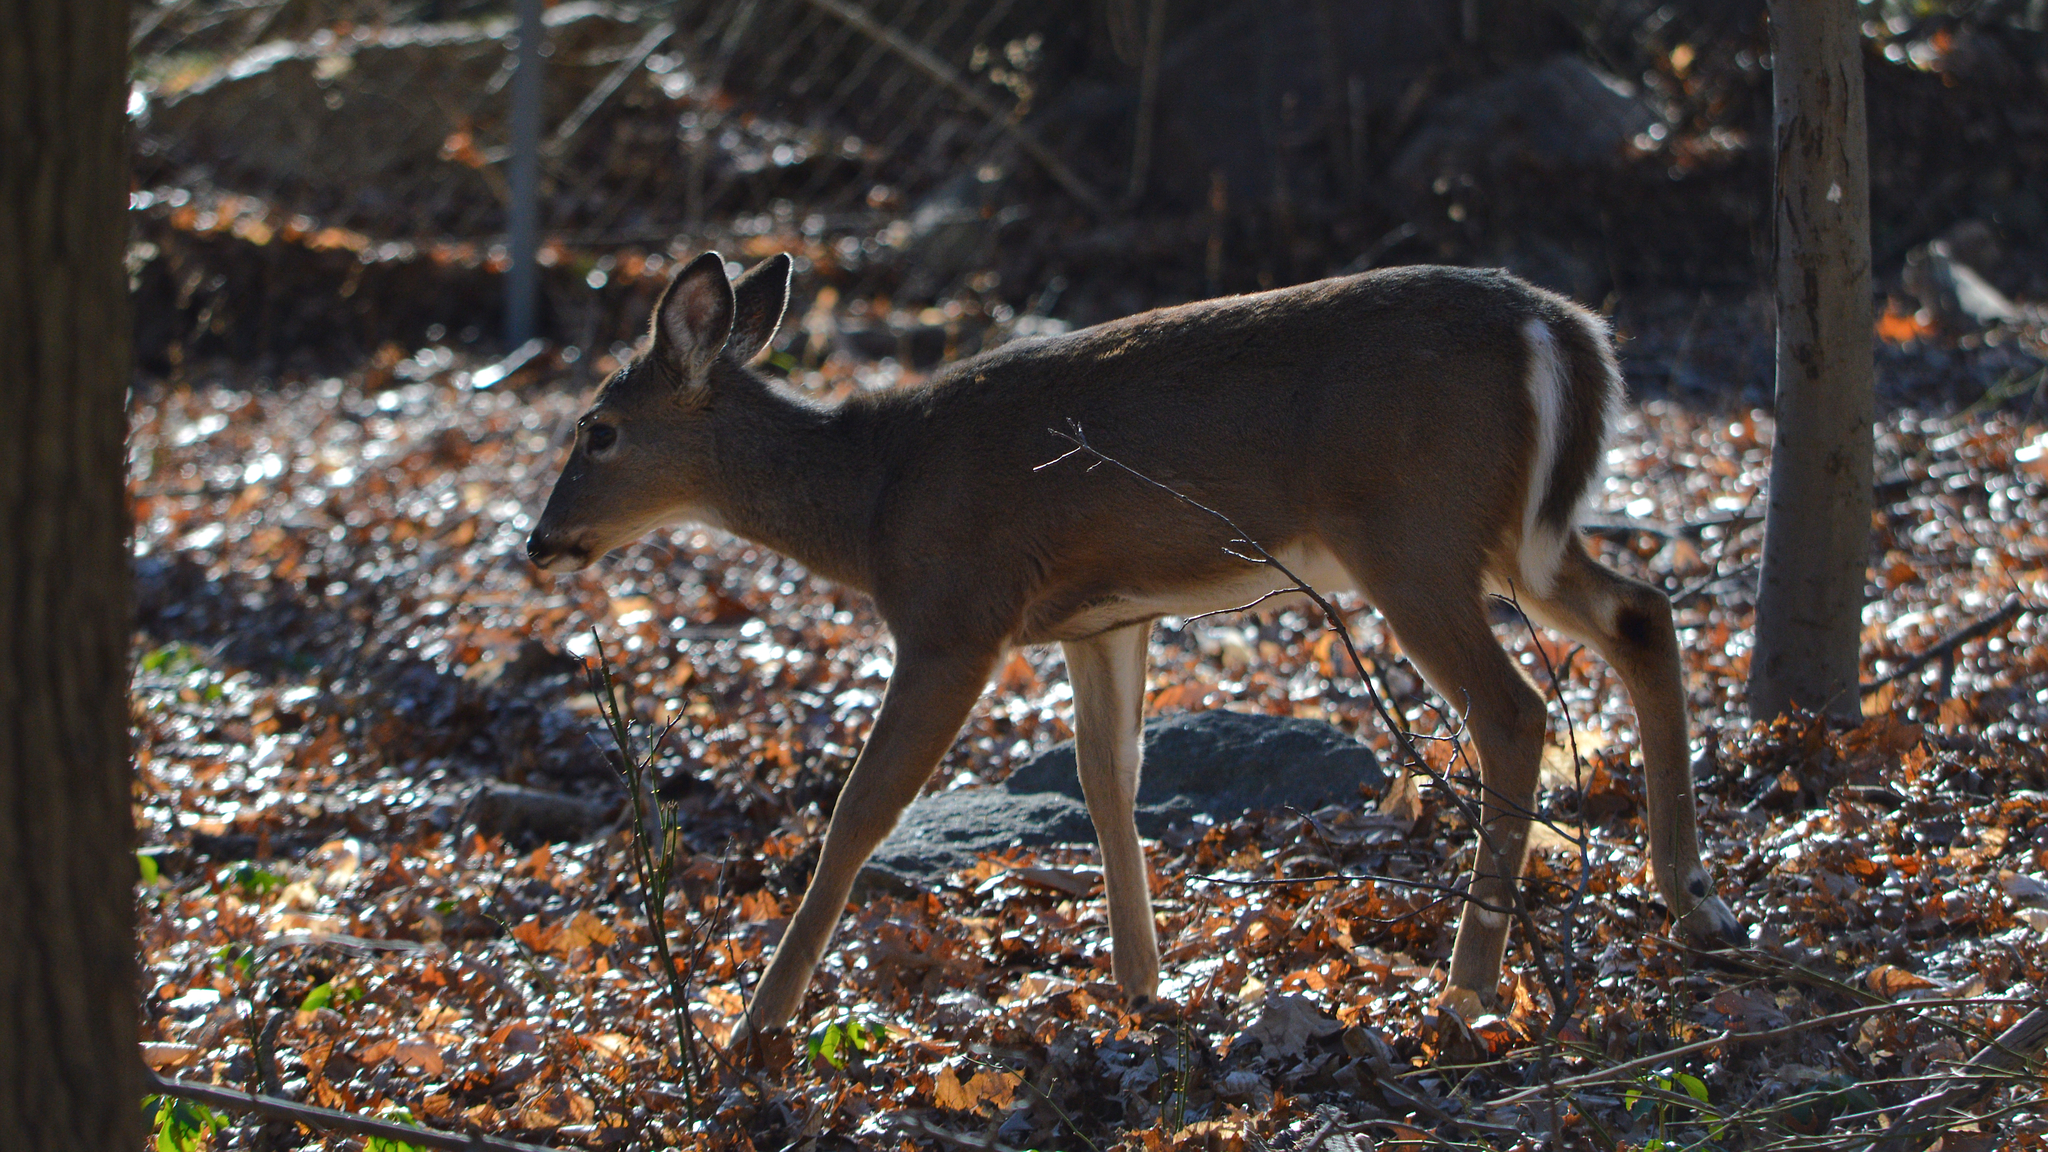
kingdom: Animalia
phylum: Chordata
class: Mammalia
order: Artiodactyla
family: Cervidae
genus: Odocoileus
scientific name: Odocoileus virginianus
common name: White-tailed deer
